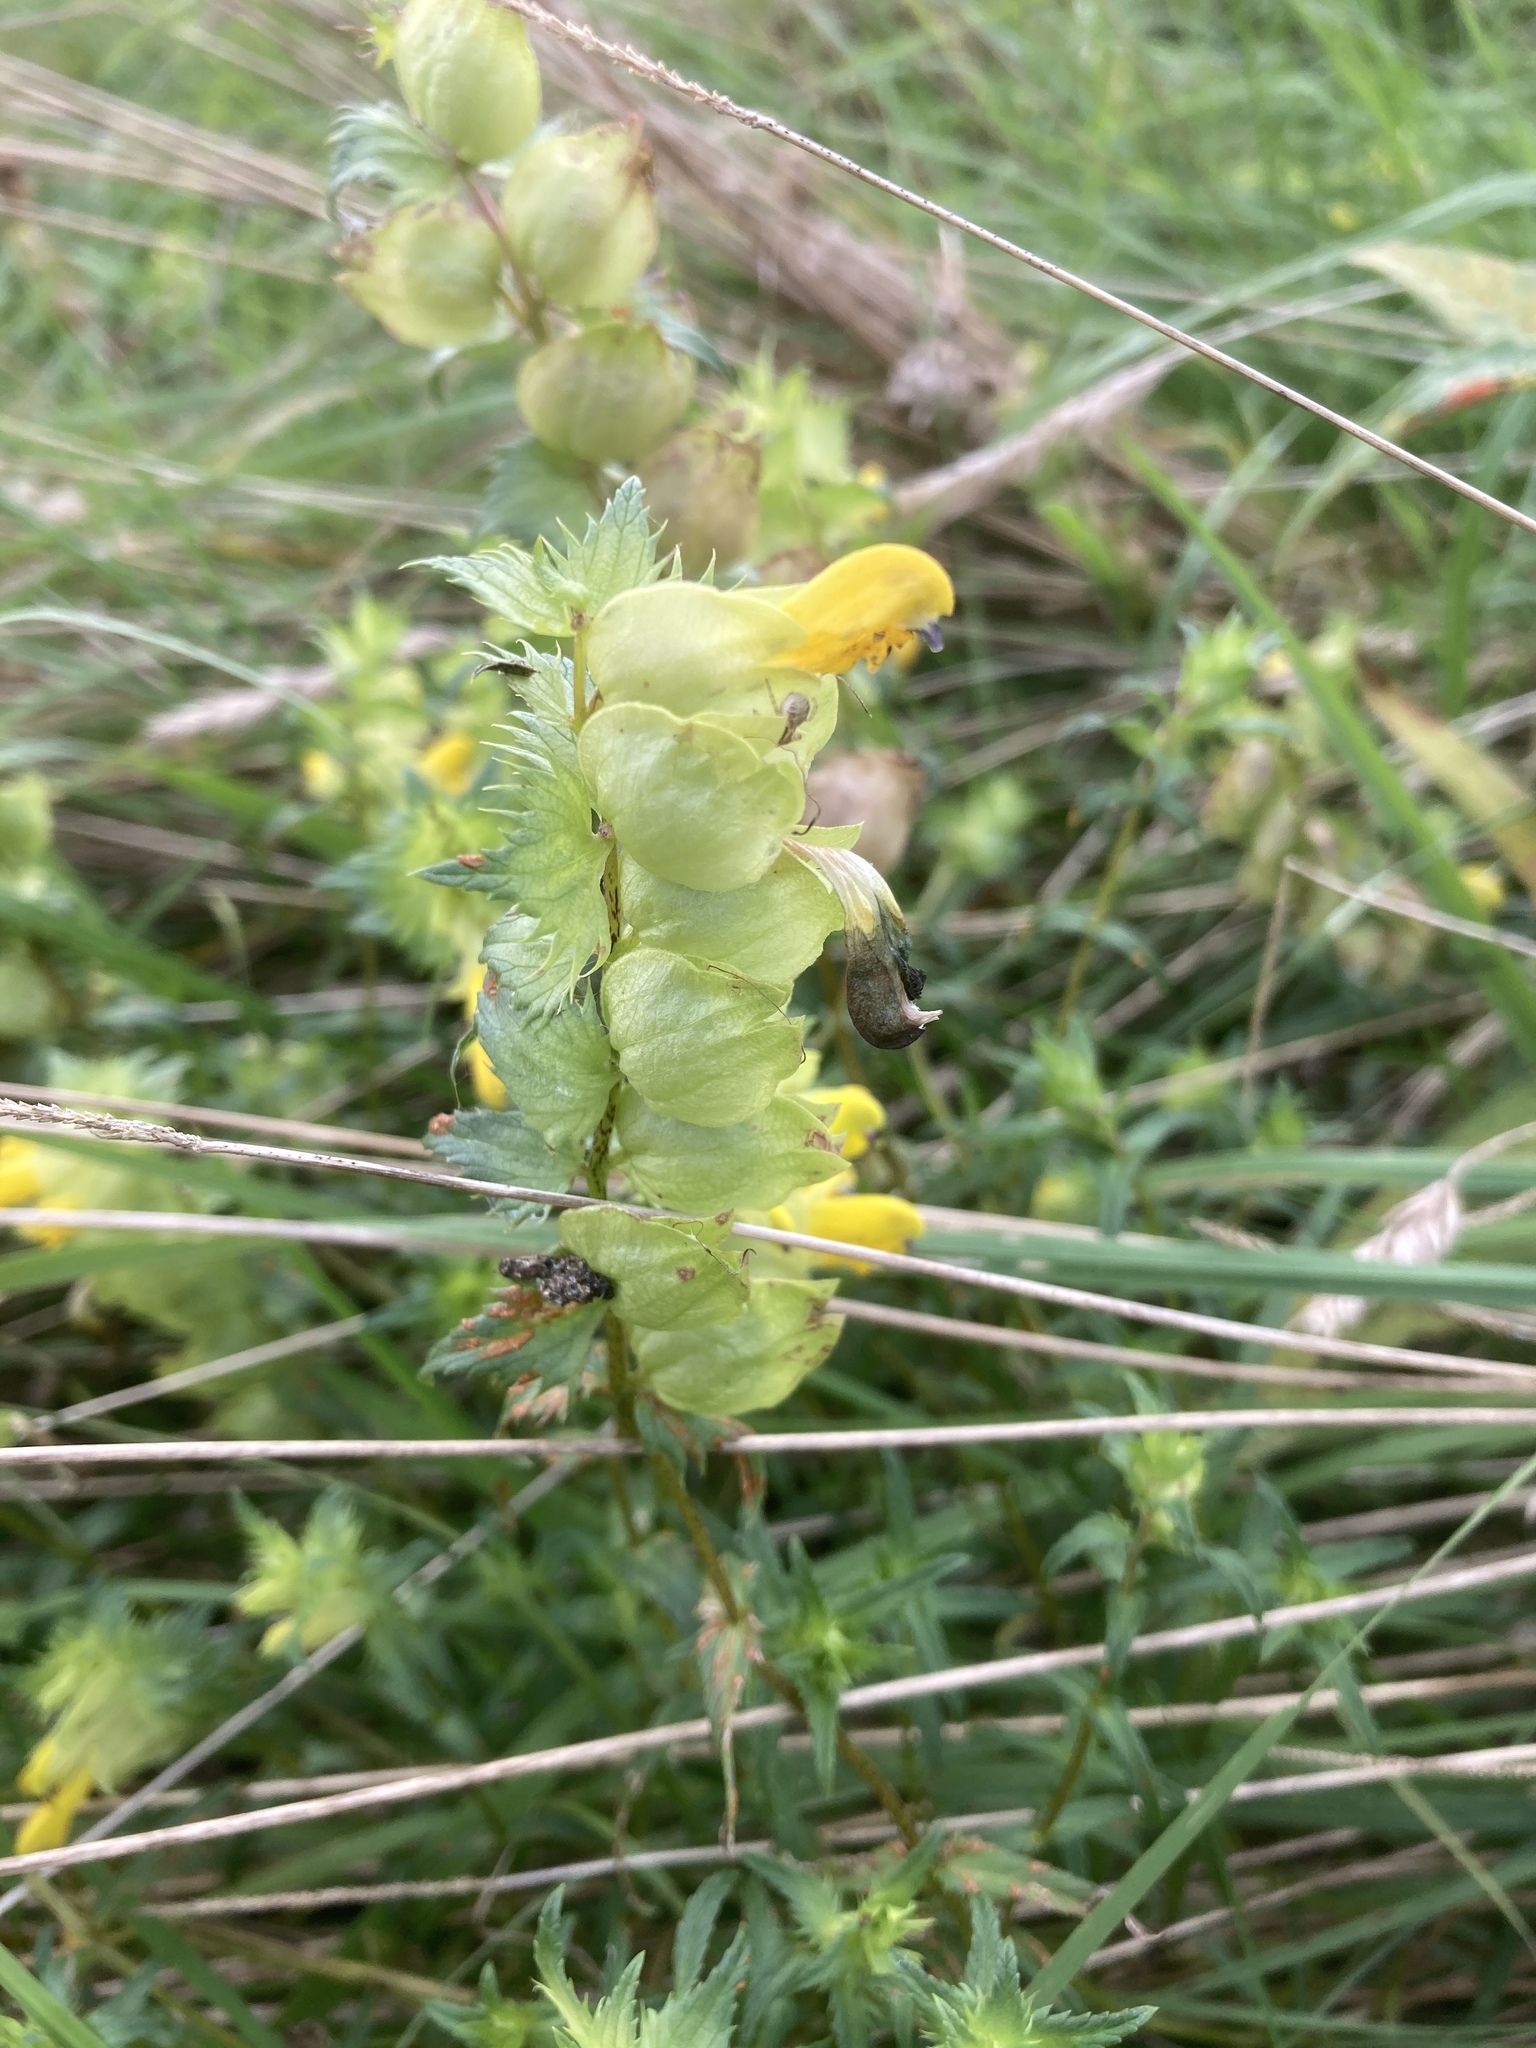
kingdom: Plantae
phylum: Tracheophyta
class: Magnoliopsida
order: Lamiales
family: Orobanchaceae
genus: Rhinanthus
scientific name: Rhinanthus serotinus
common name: Late-flowering yellow rattle
